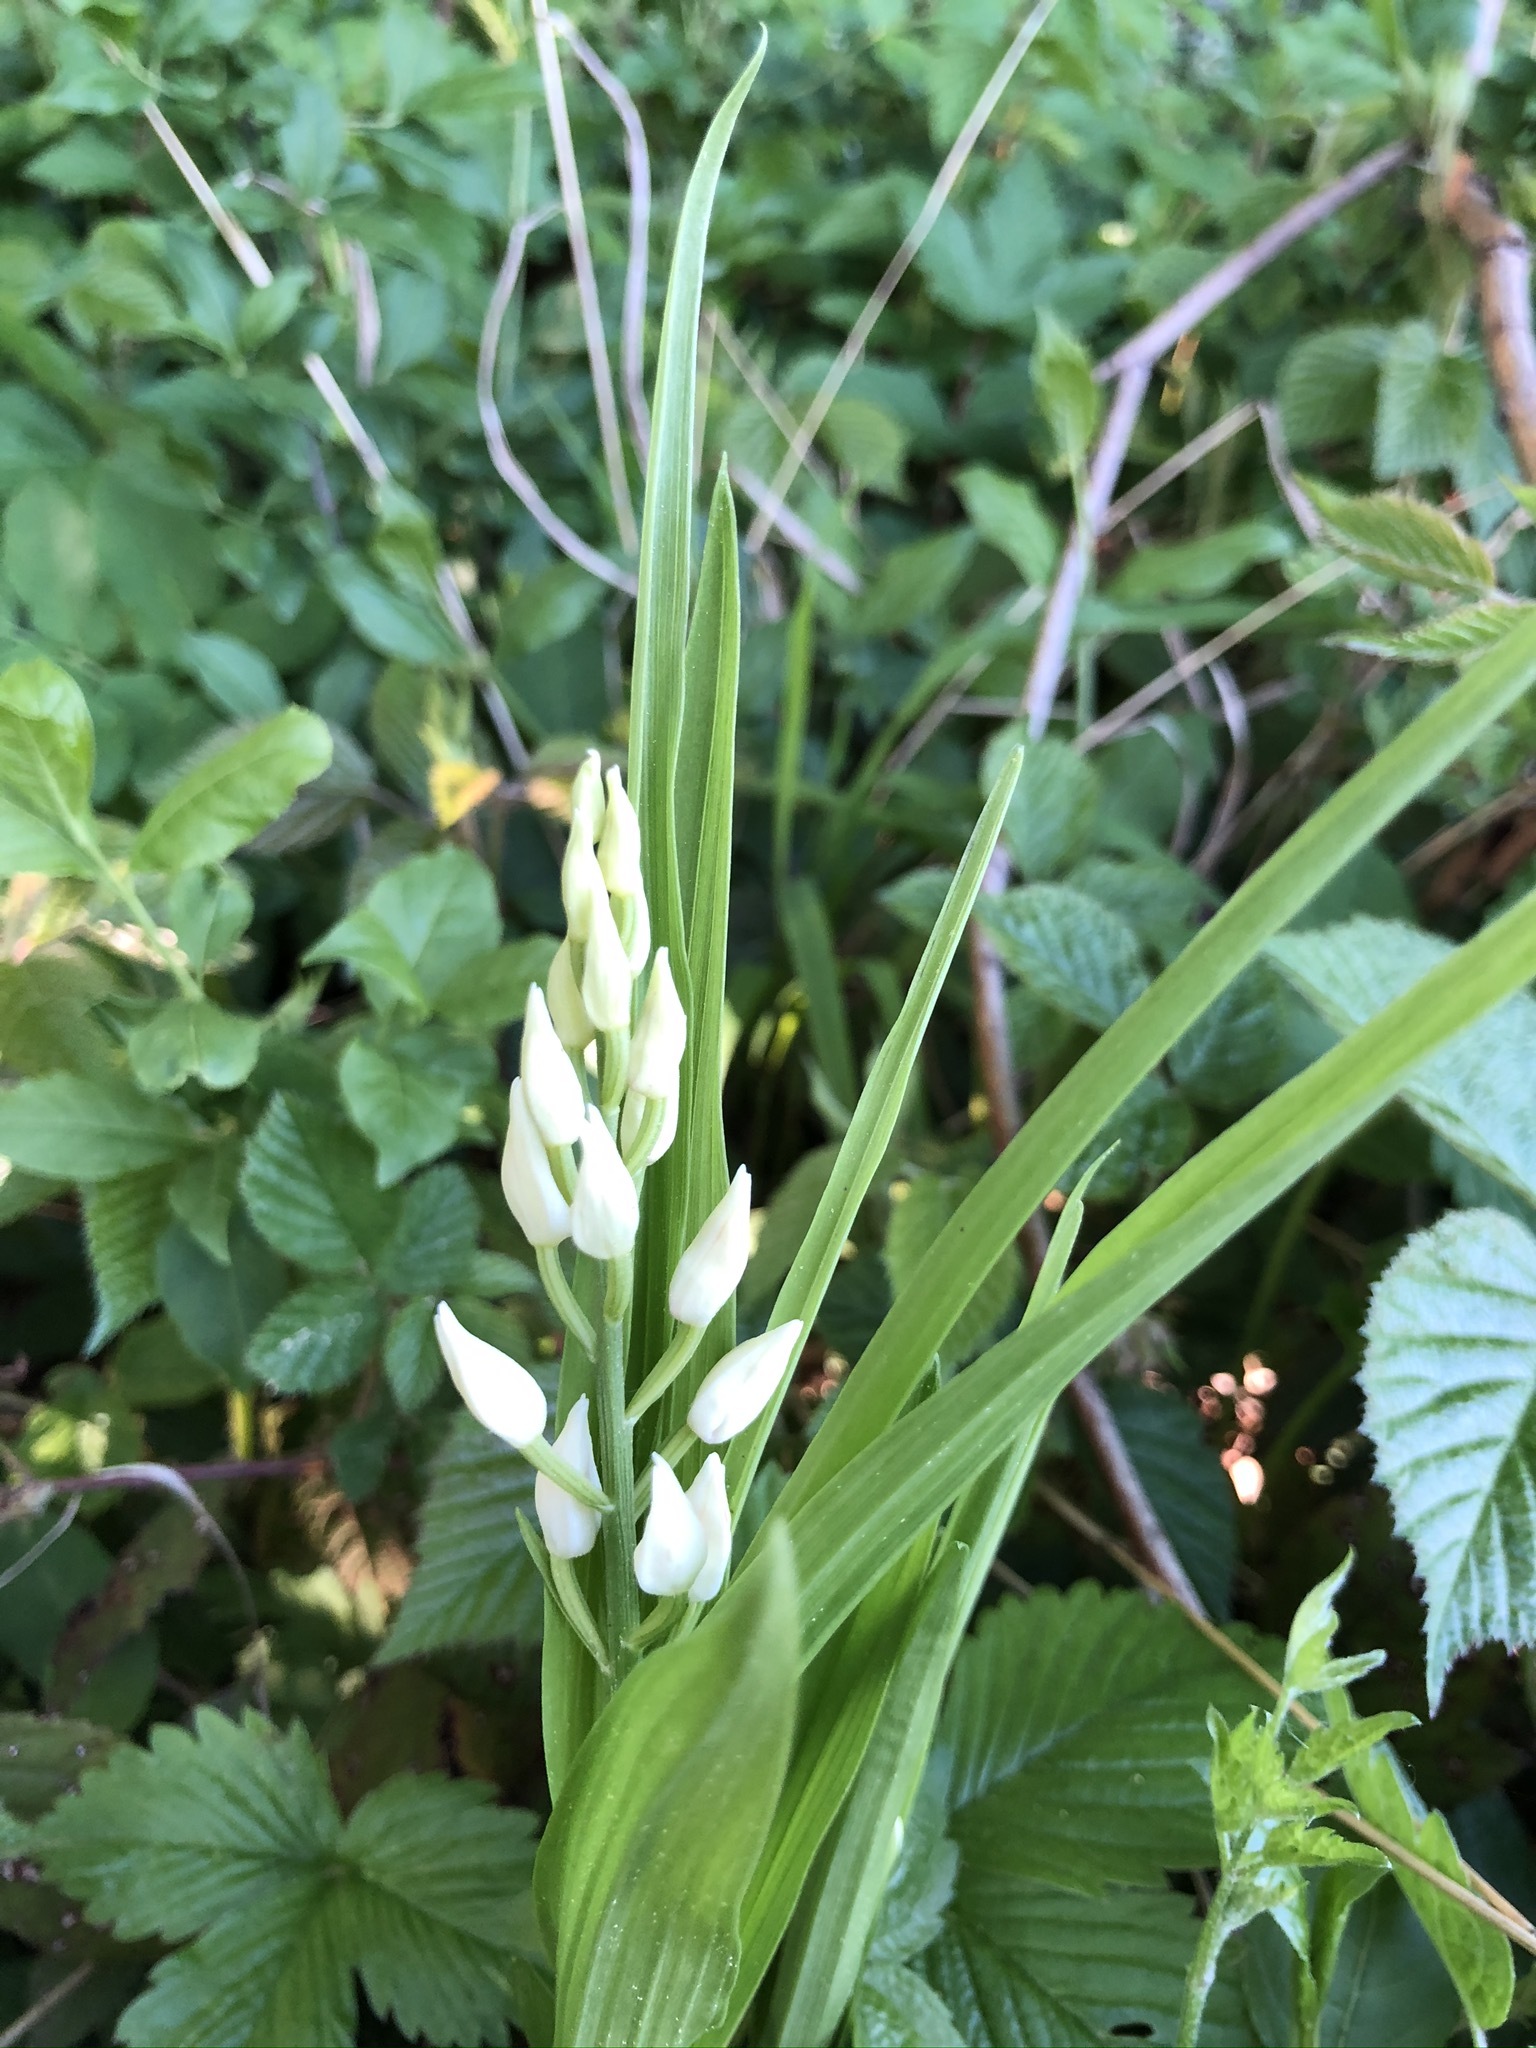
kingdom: Plantae
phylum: Tracheophyta
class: Liliopsida
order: Asparagales
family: Orchidaceae
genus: Cephalanthera
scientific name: Cephalanthera longifolia
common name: Narrow-leaved helleborine
